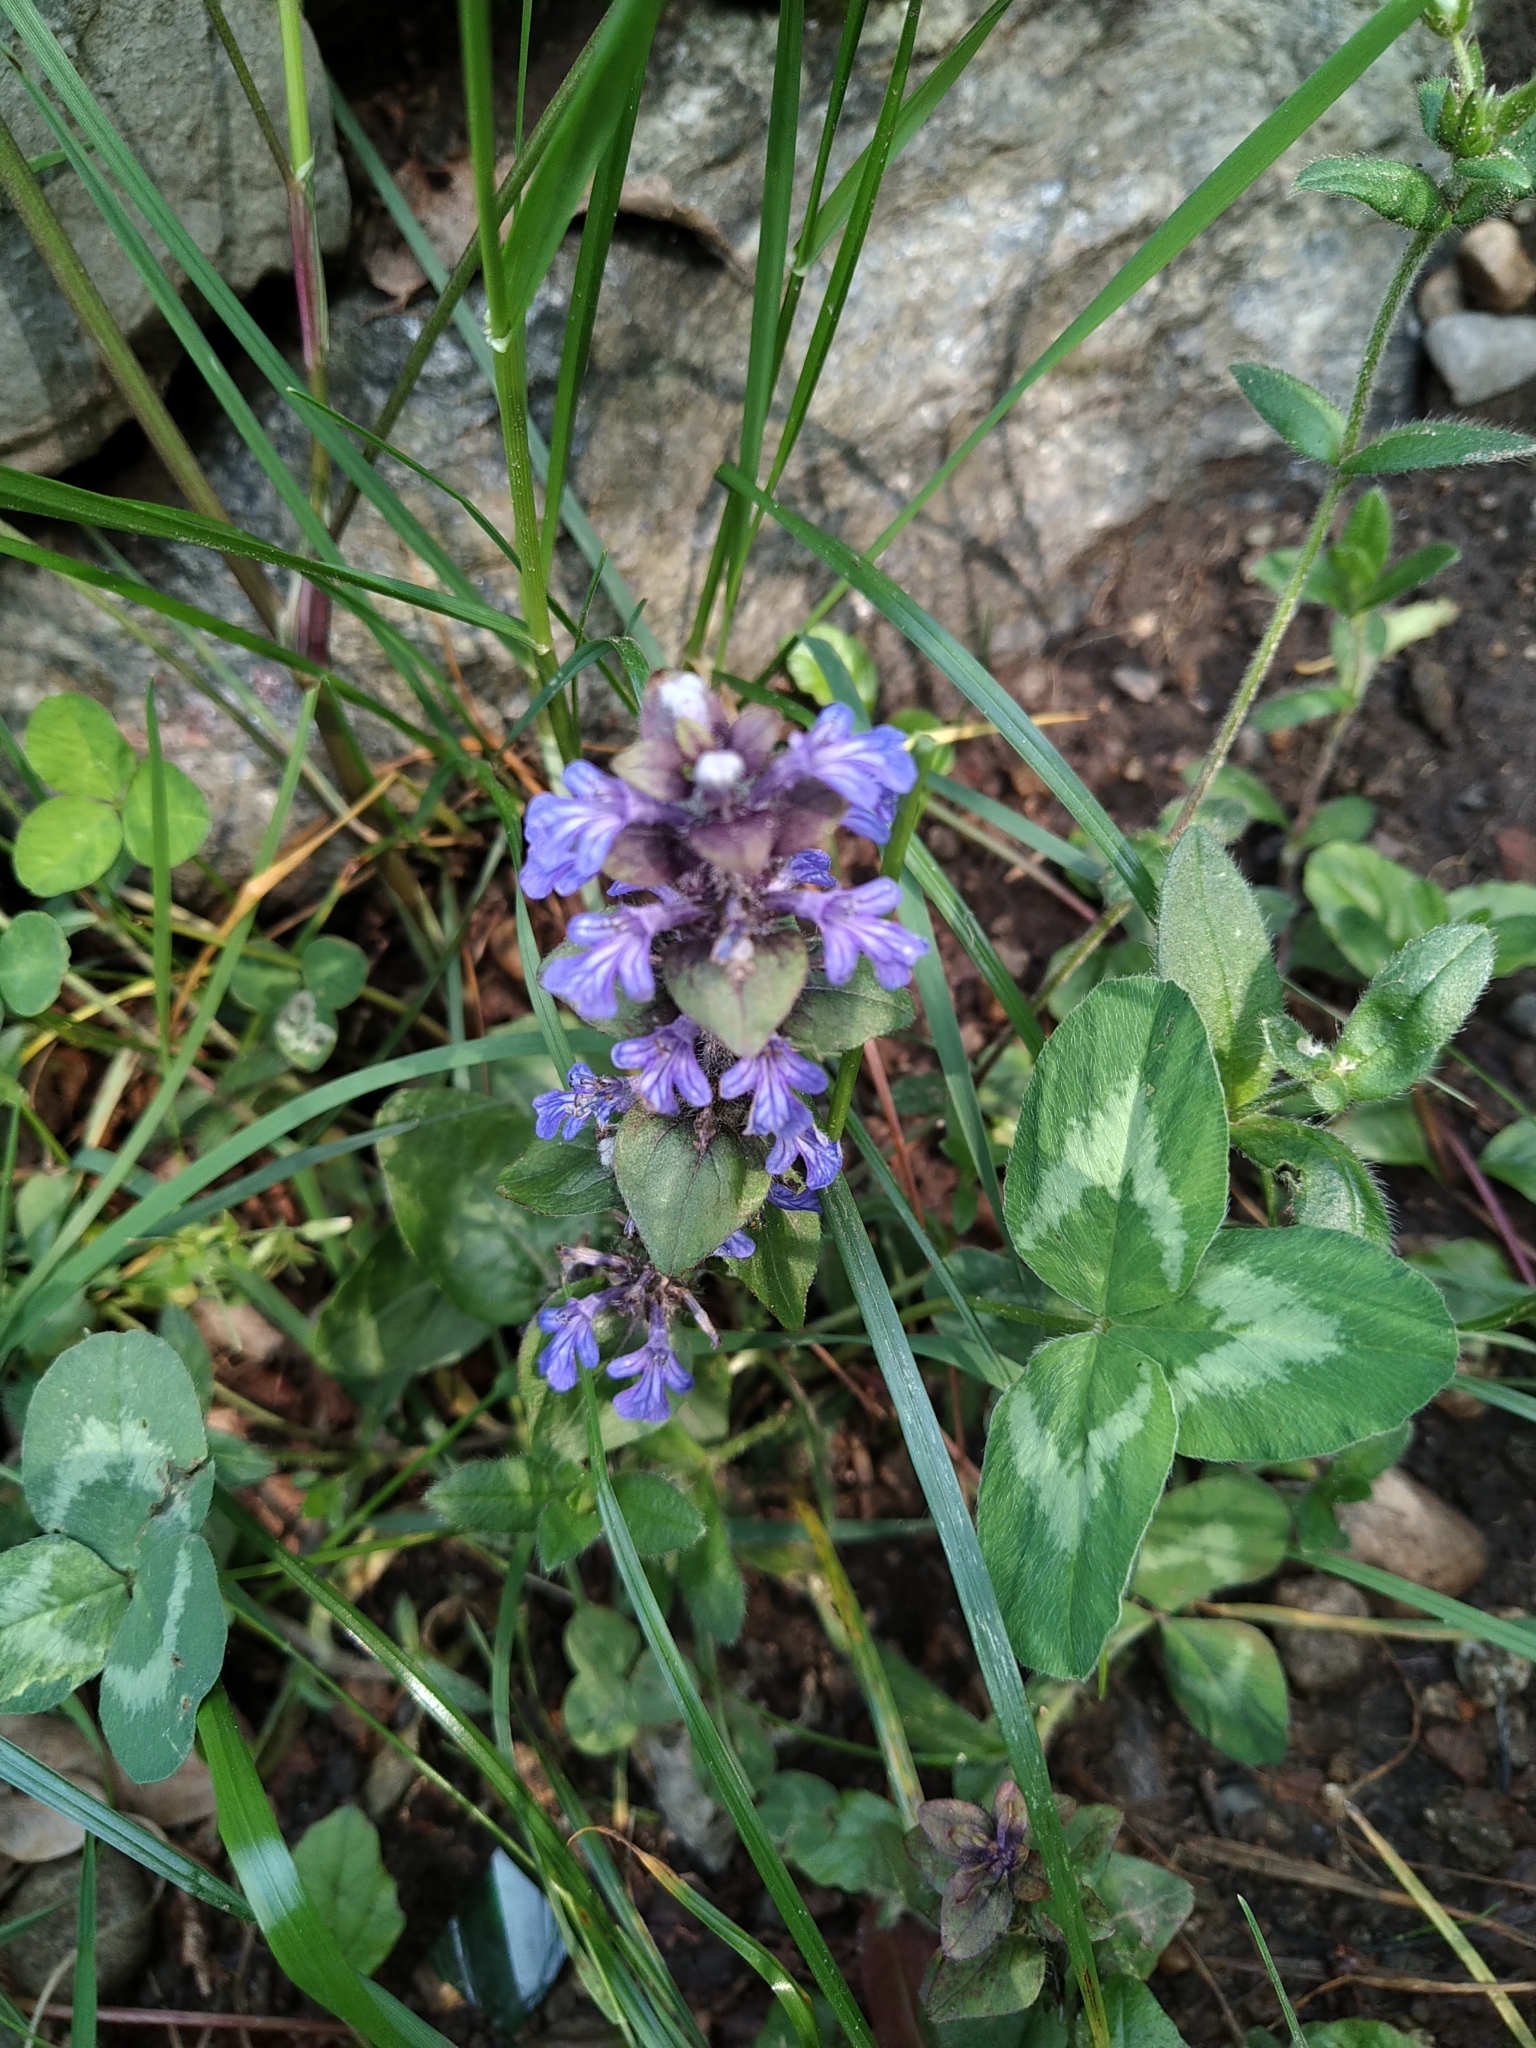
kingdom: Plantae
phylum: Tracheophyta
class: Magnoliopsida
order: Lamiales
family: Lamiaceae
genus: Ajuga
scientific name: Ajuga reptans
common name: Bugle
